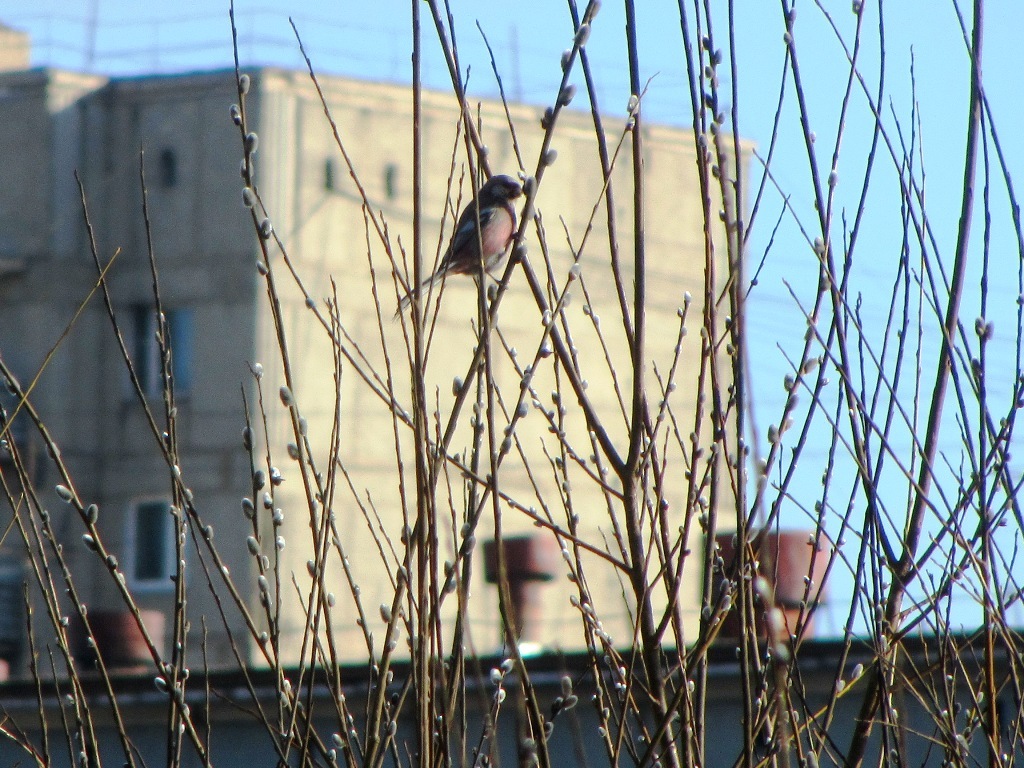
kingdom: Animalia
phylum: Chordata
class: Aves
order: Passeriformes
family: Fringillidae
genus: Carpodacus
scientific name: Carpodacus sibiricus
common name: Long-tailed rosefinch
